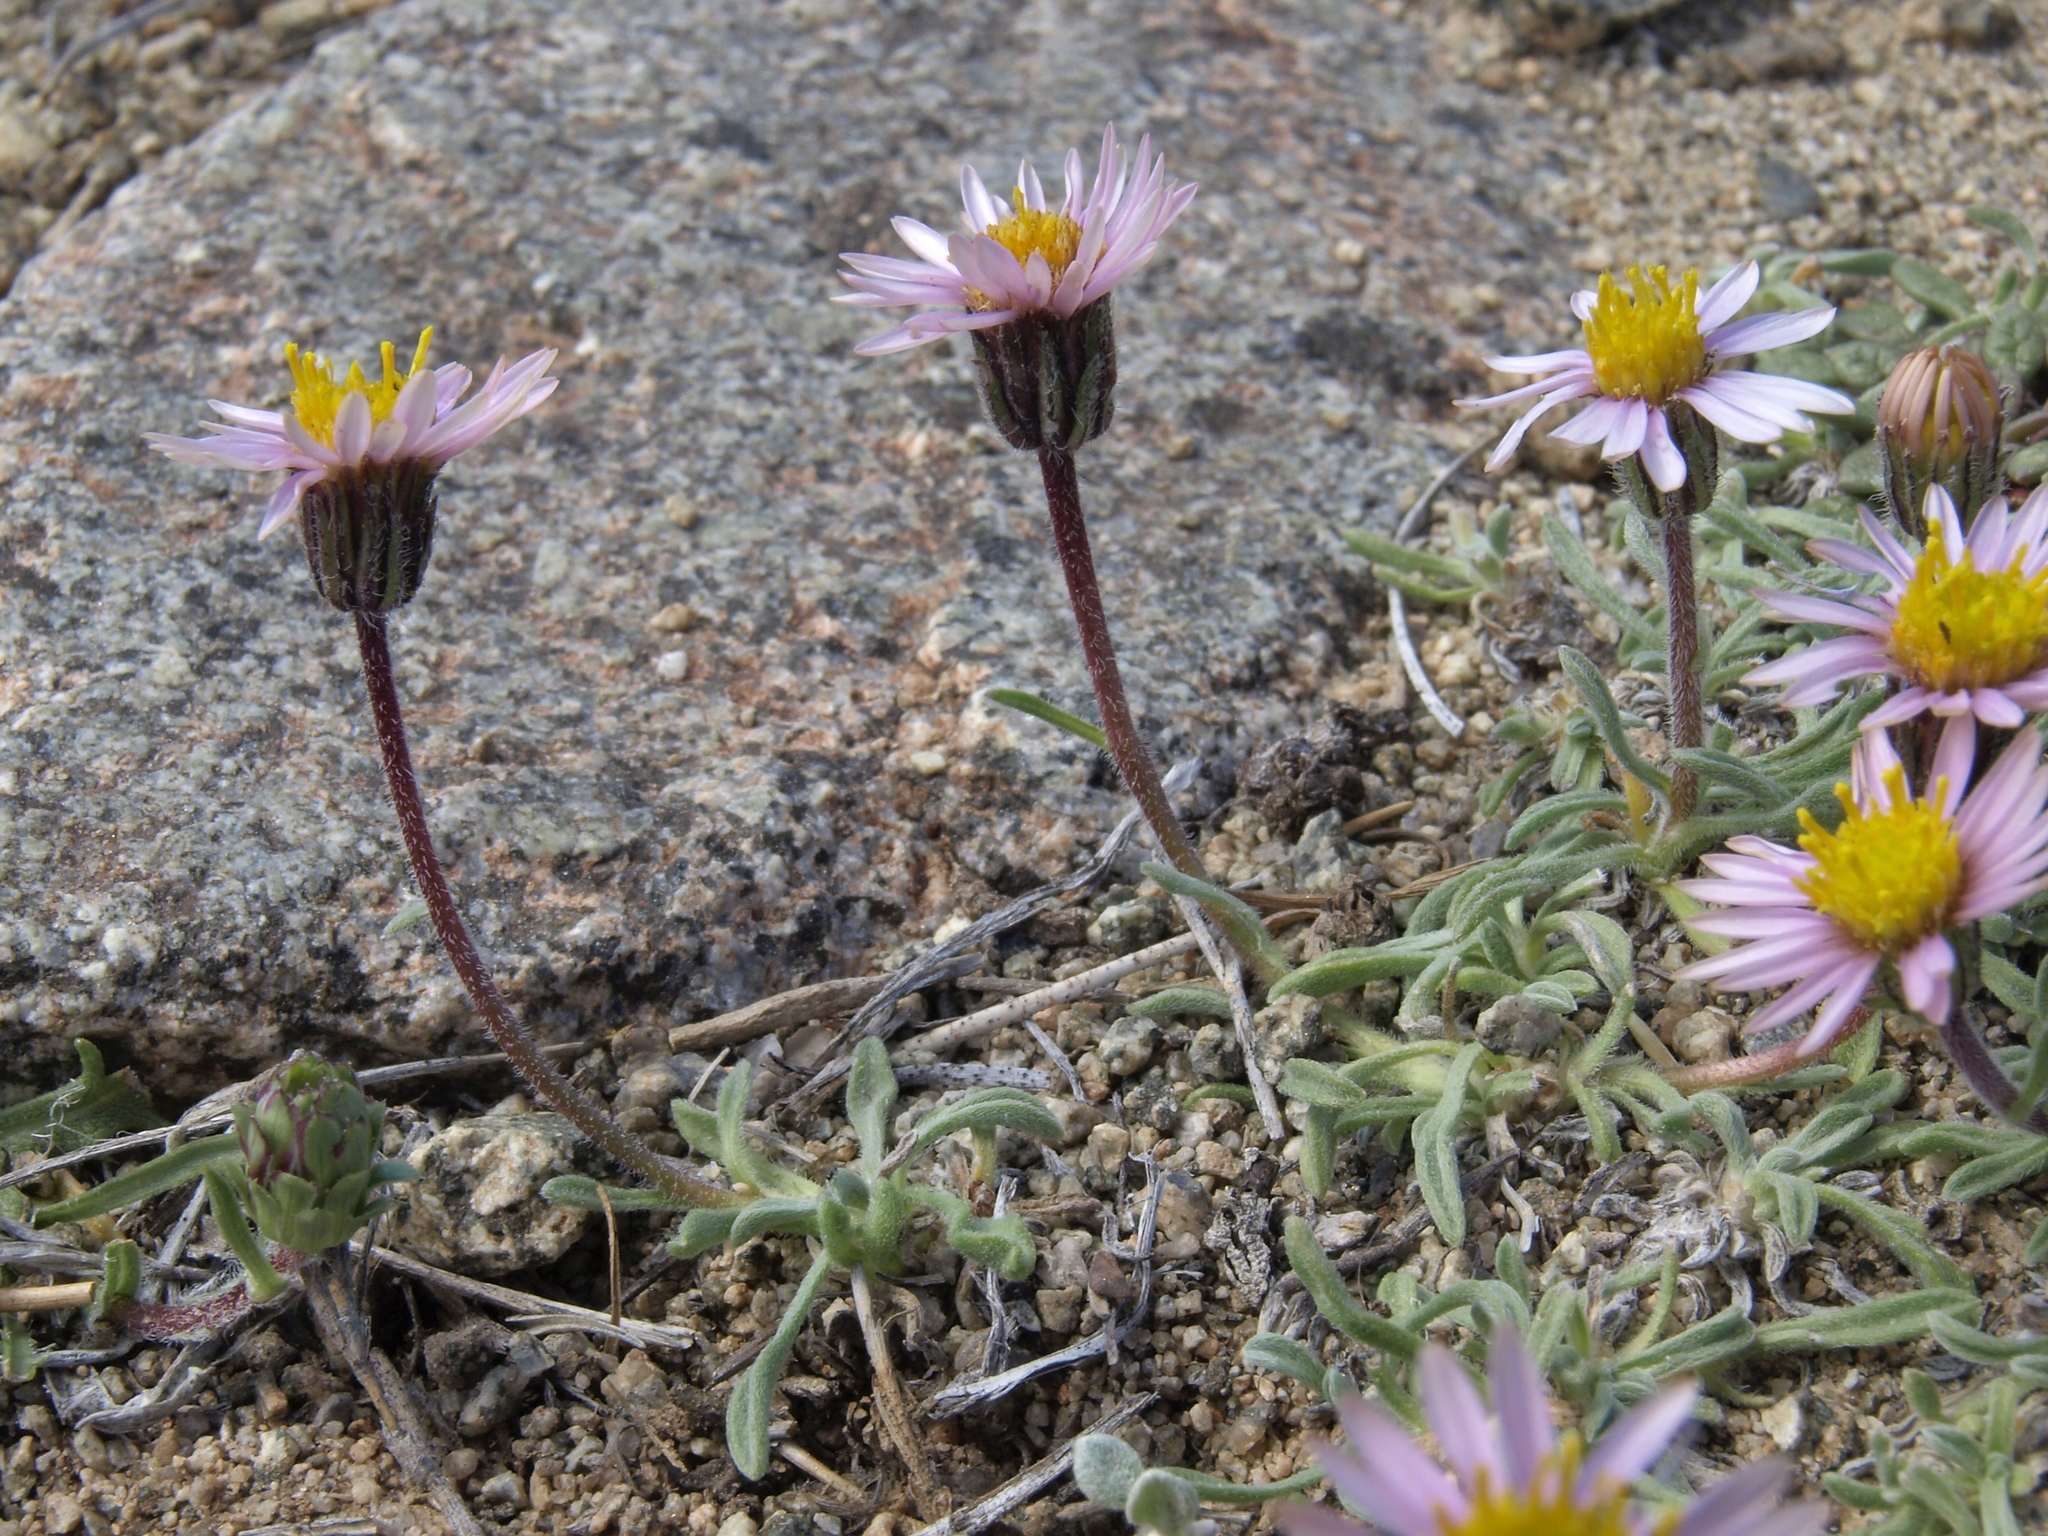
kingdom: Plantae
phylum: Tracheophyta
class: Magnoliopsida
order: Asterales
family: Asteraceae
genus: Erigeron
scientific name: Erigeron pygmaeus
